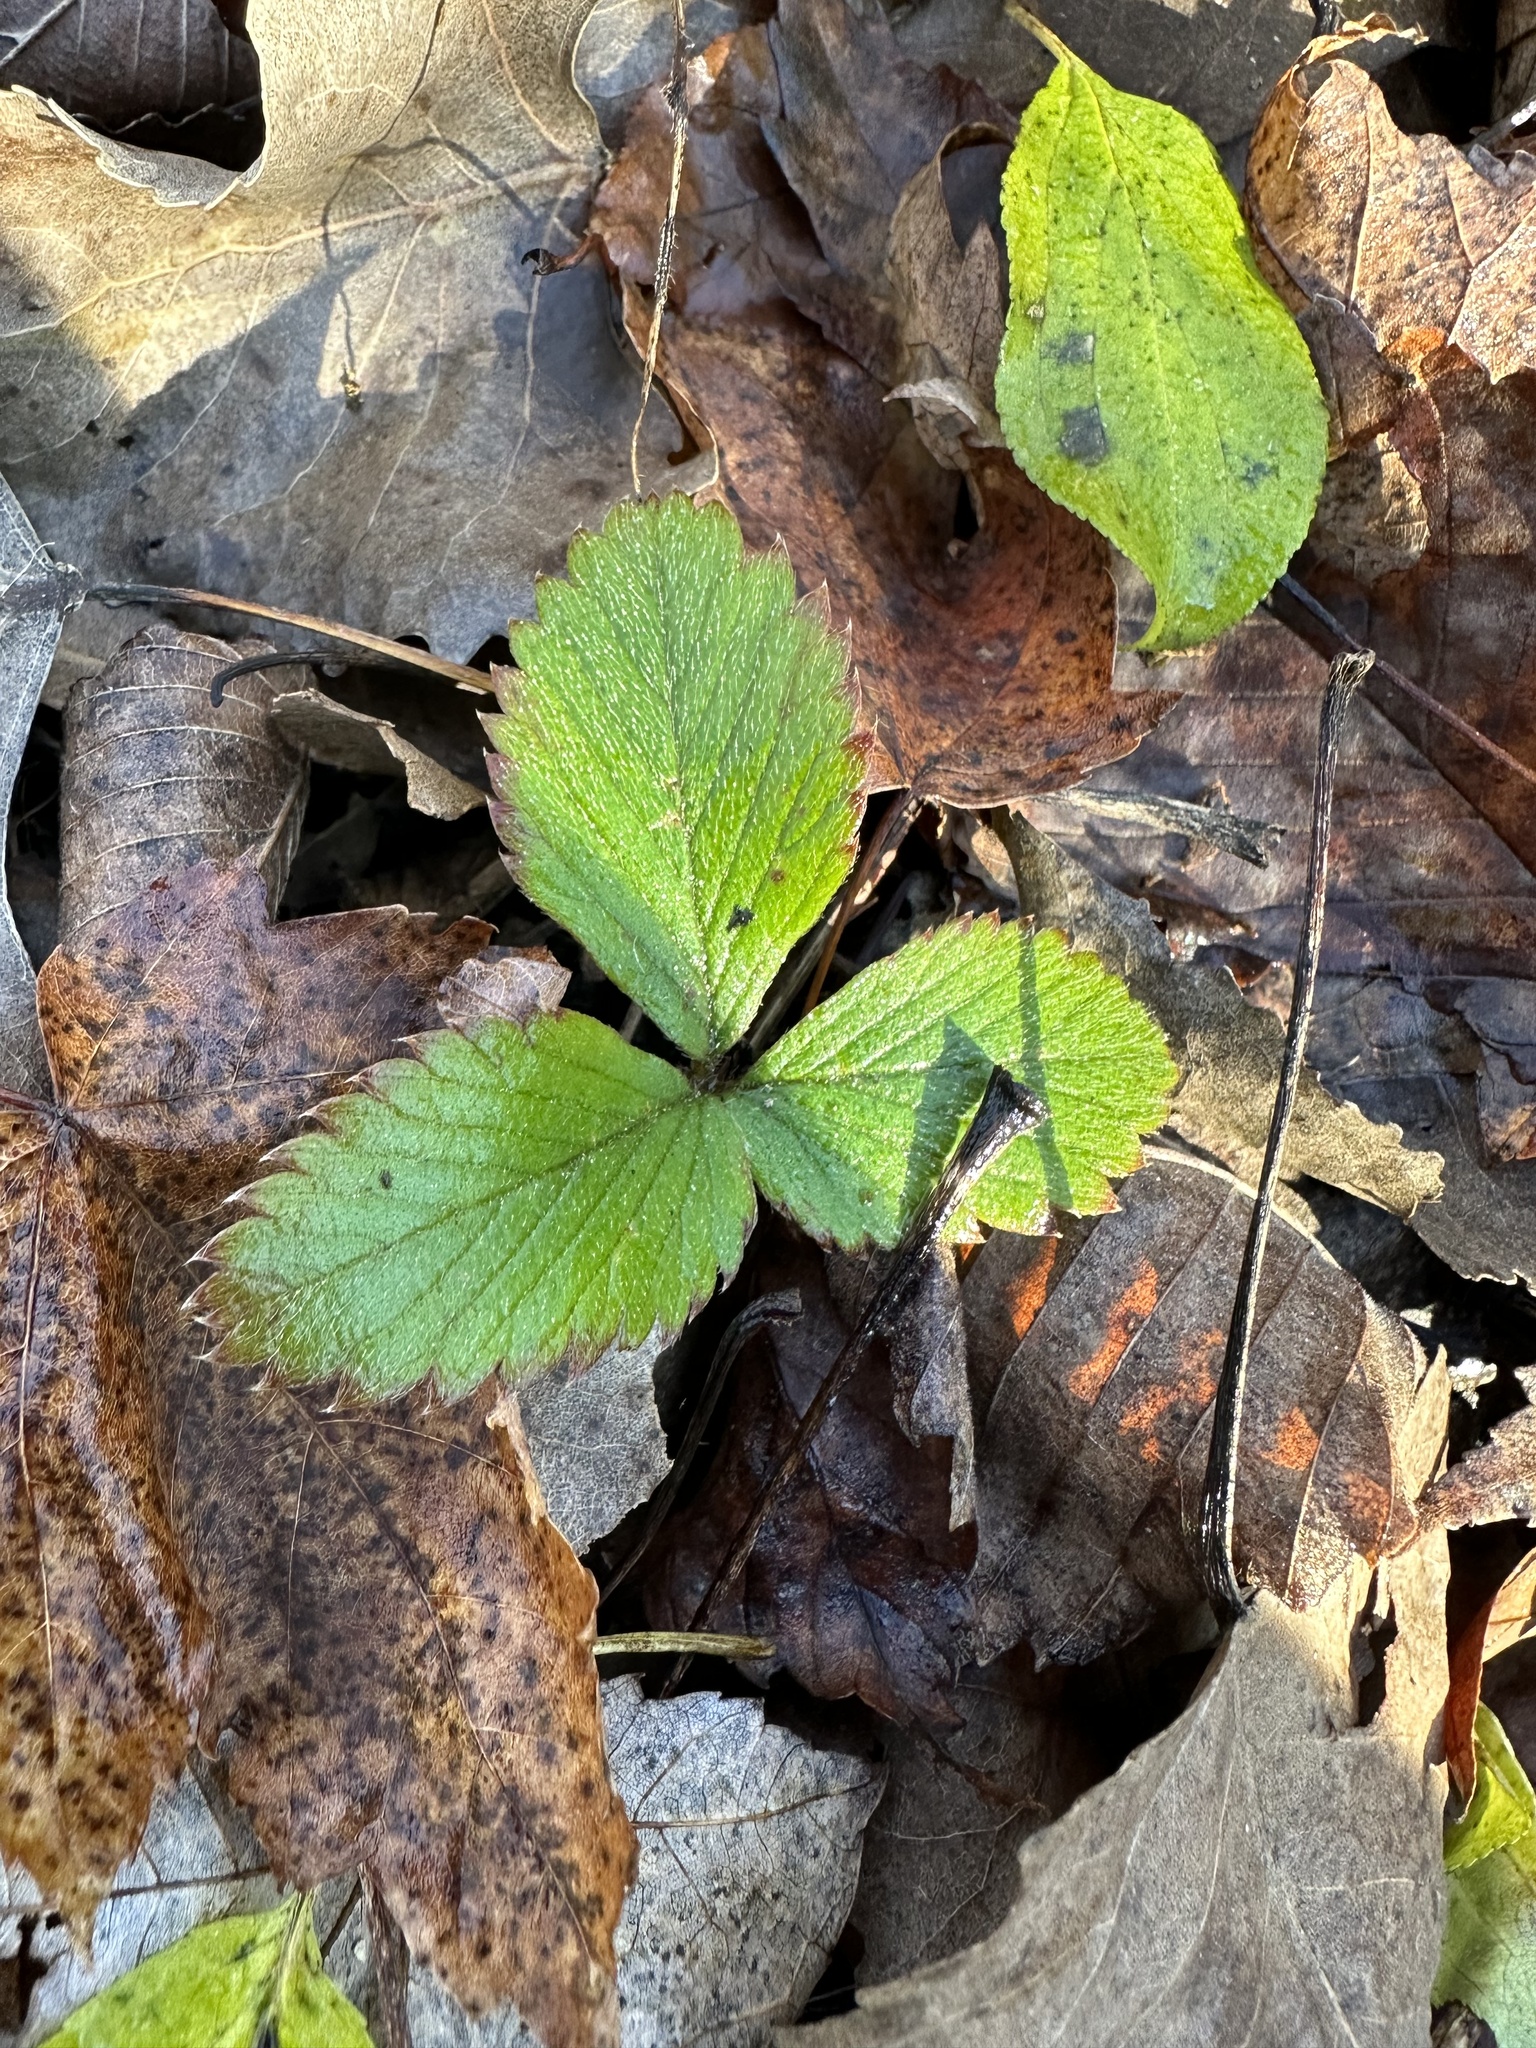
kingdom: Plantae
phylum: Tracheophyta
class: Magnoliopsida
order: Rosales
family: Rosaceae
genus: Fragaria
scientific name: Fragaria virginiana
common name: Thickleaved wild strawberry
